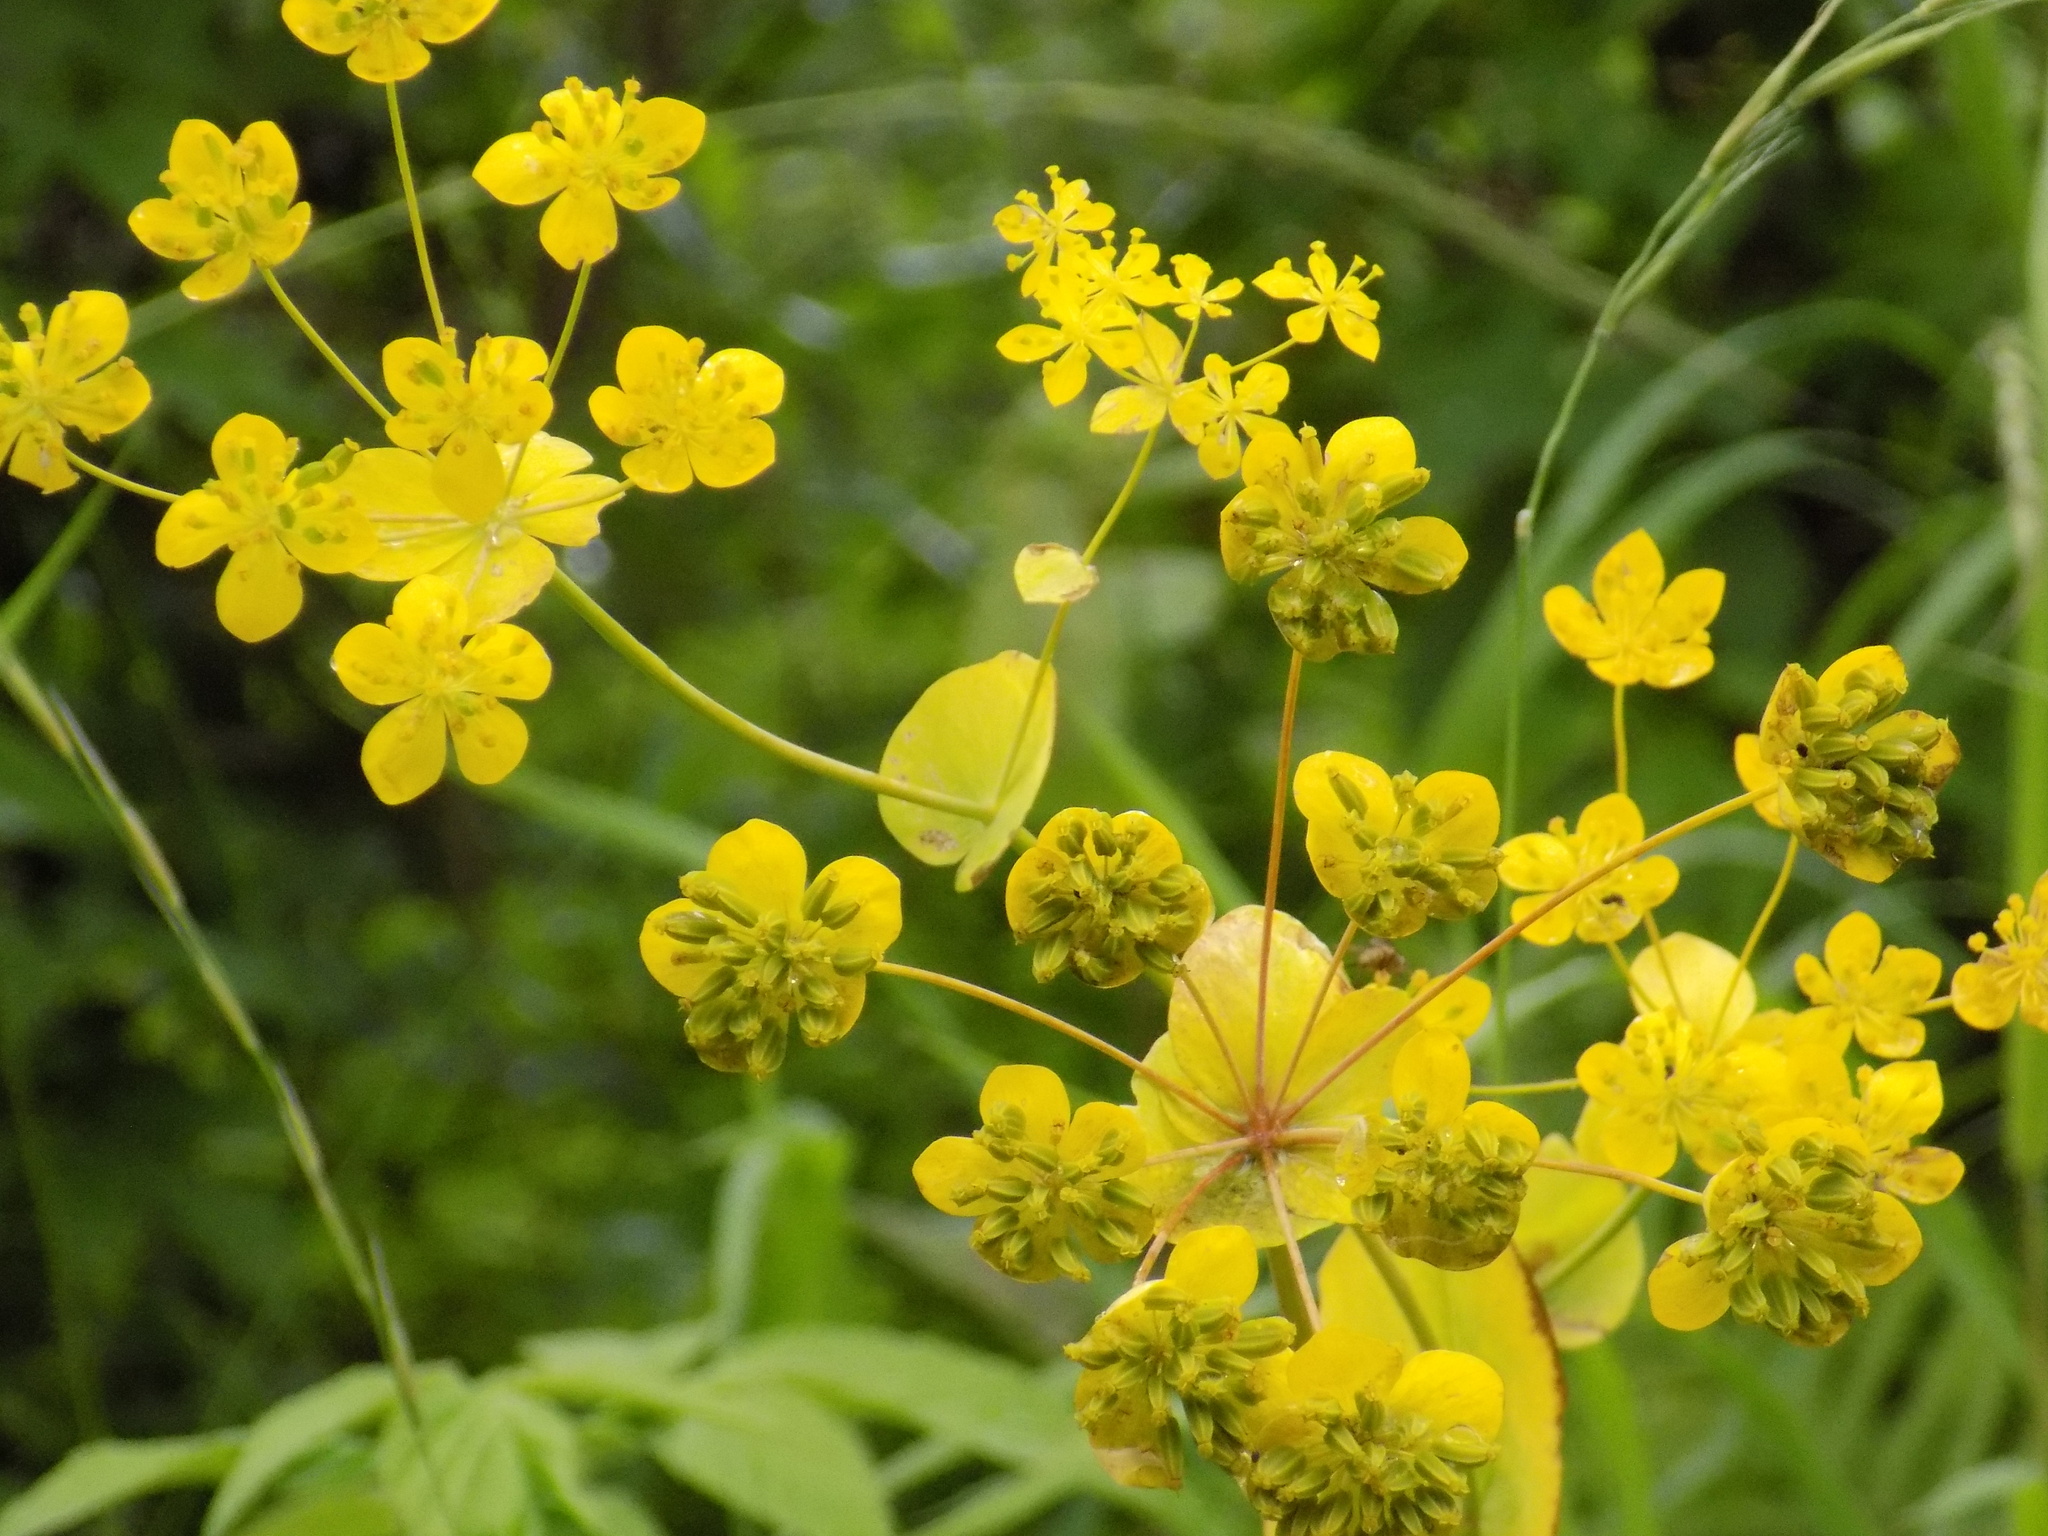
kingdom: Plantae
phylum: Tracheophyta
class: Magnoliopsida
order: Apiales
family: Apiaceae
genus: Bupleurum
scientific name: Bupleurum aureum
